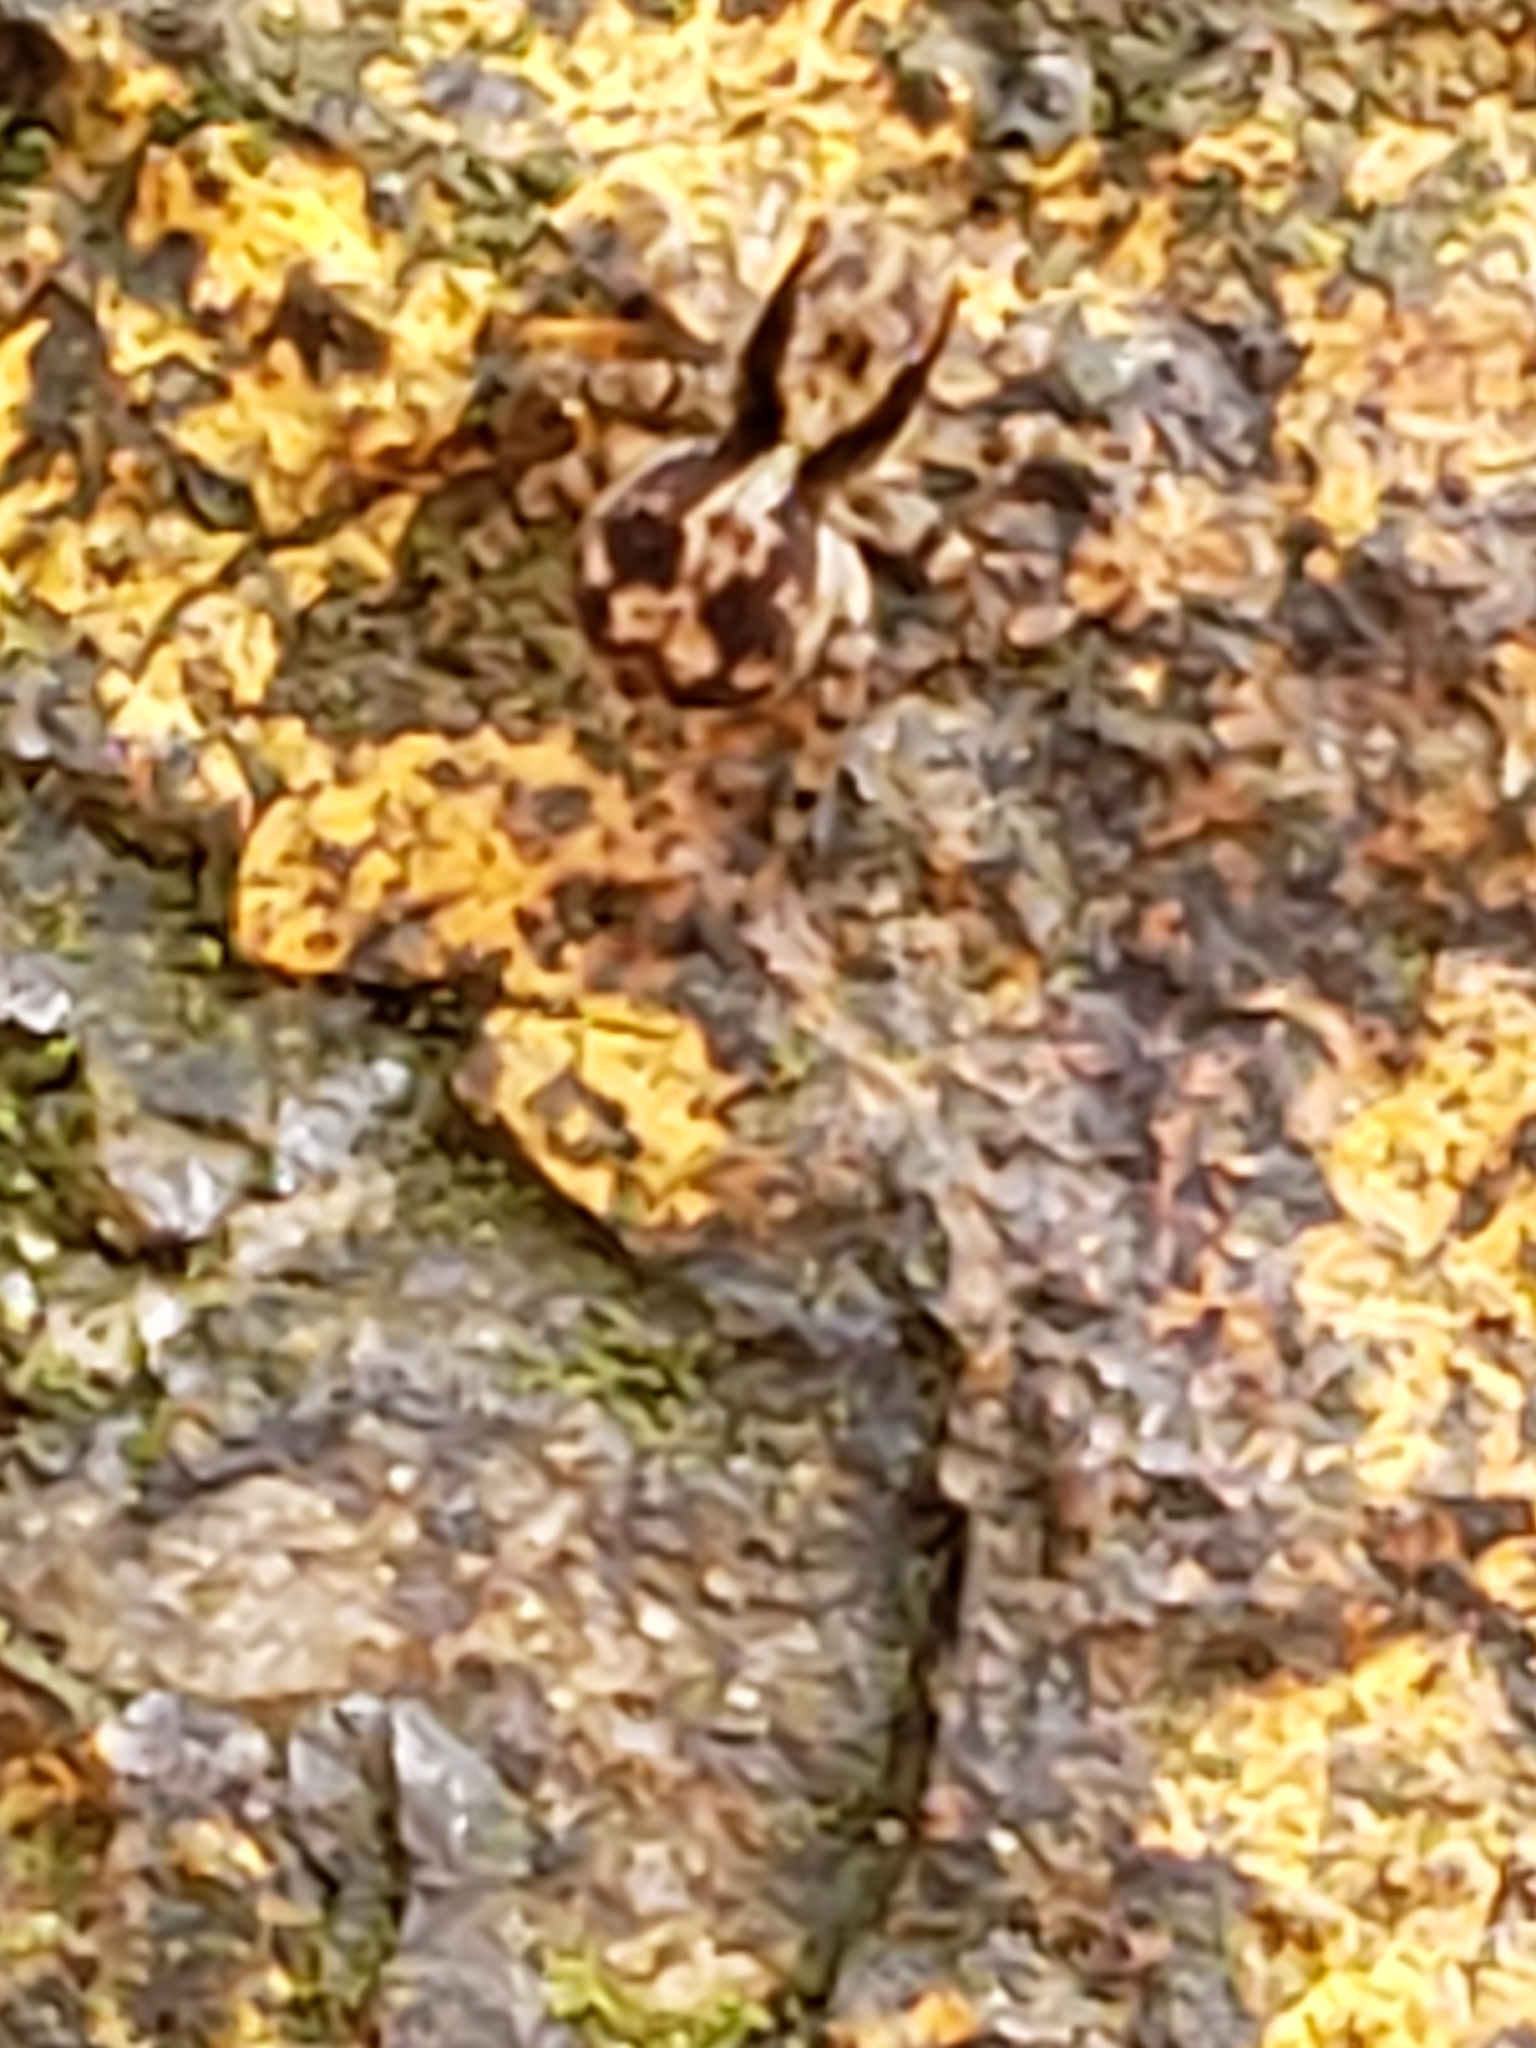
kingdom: Animalia
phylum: Arthropoda
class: Arachnida
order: Araneae
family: Salticidae
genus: Naphrys
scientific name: Naphrys pulex
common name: Flea jumping spider
